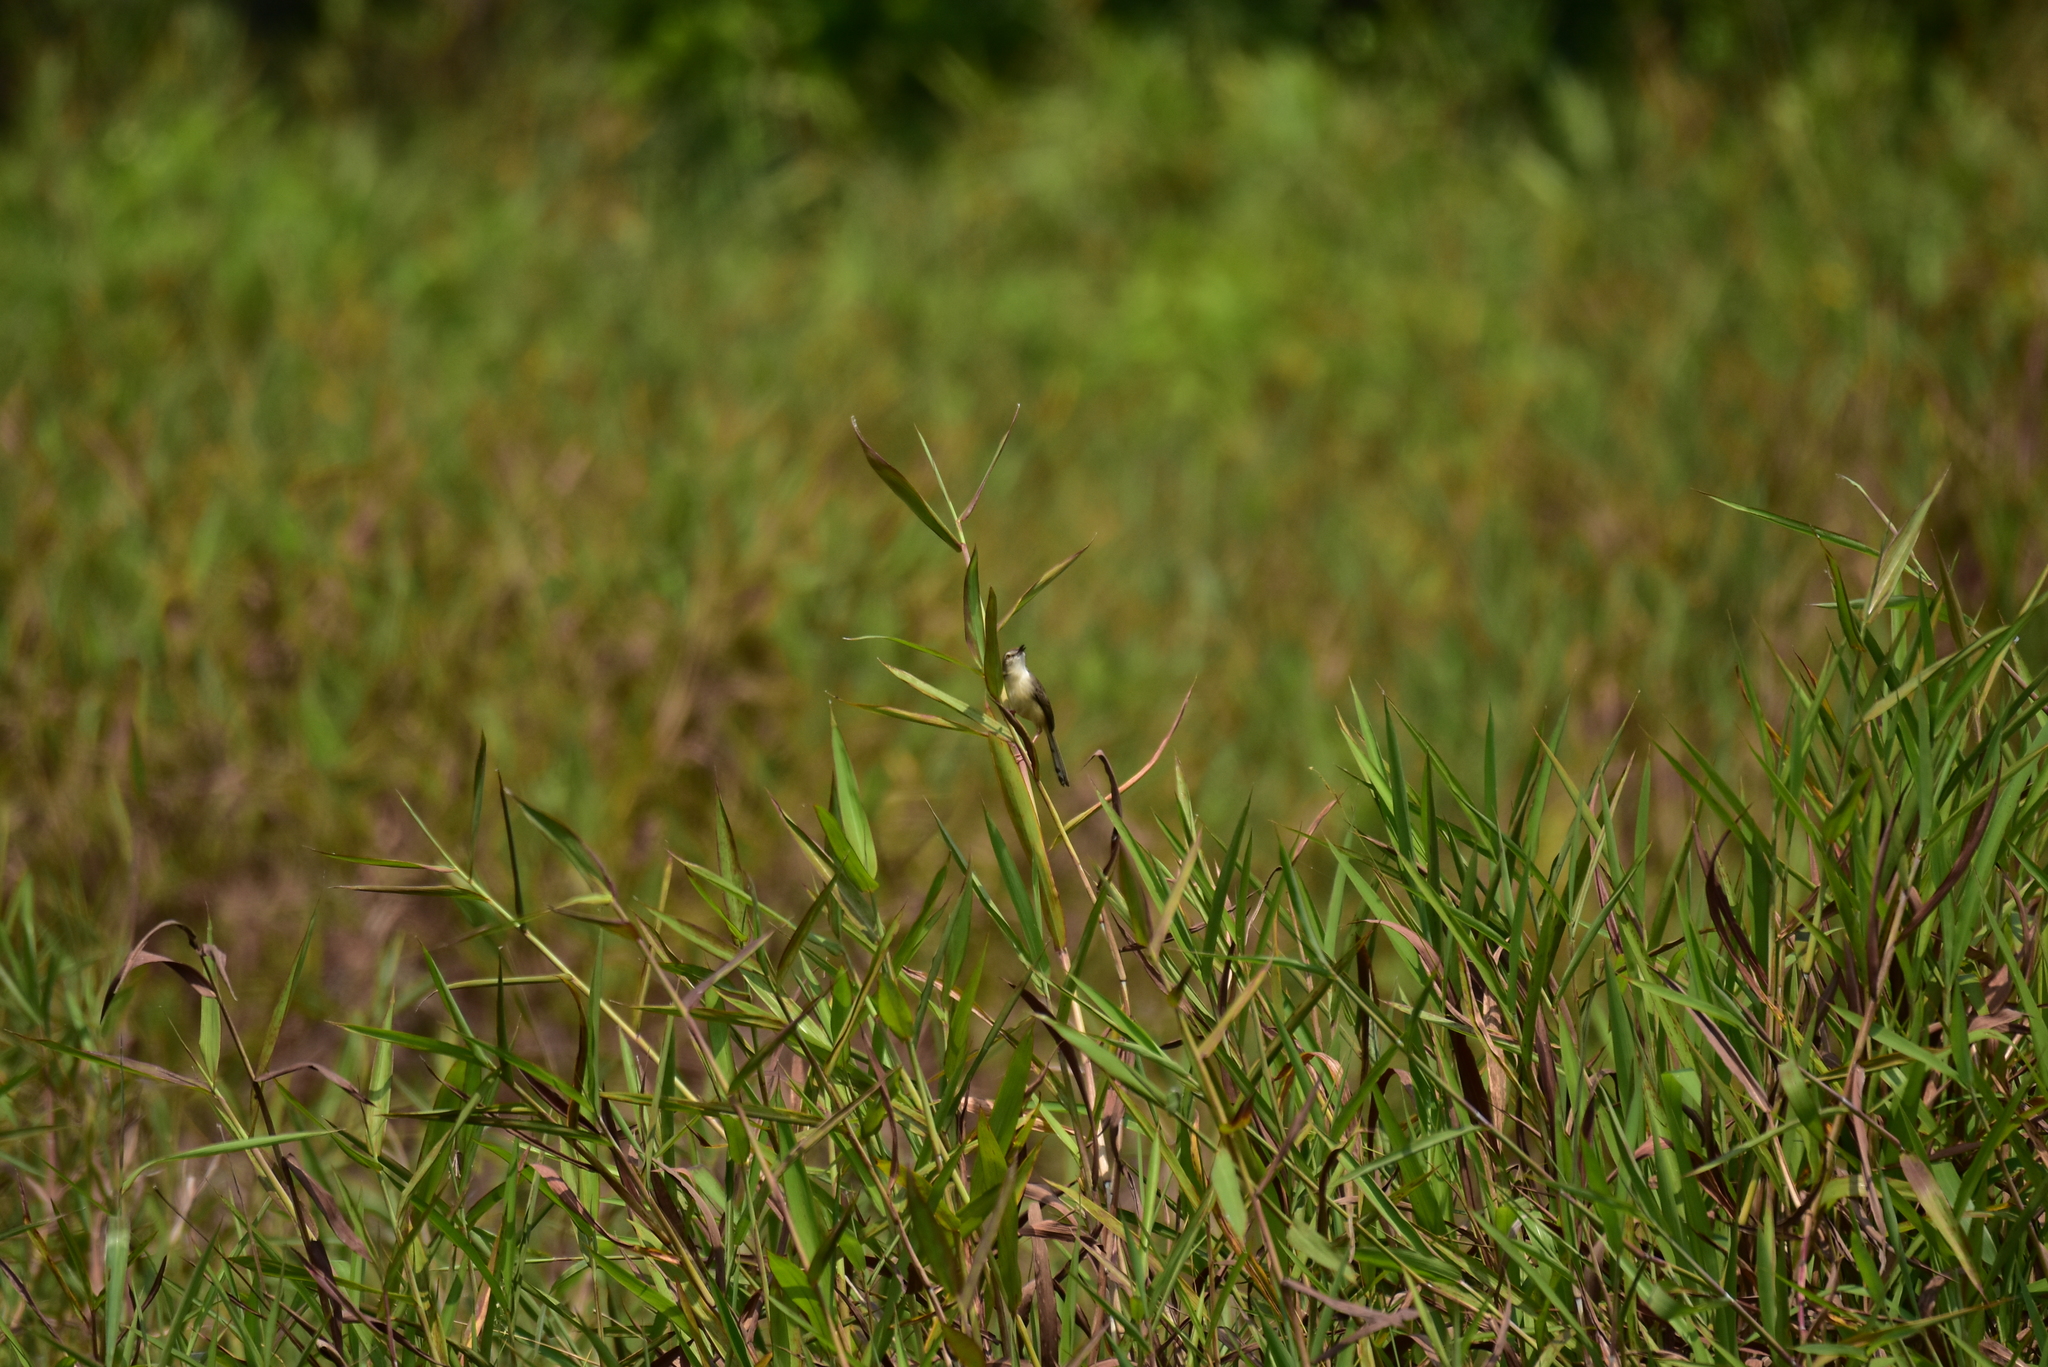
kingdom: Animalia
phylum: Chordata
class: Aves
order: Passeriformes
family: Cisticolidae
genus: Prinia
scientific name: Prinia inornata
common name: Plain prinia
